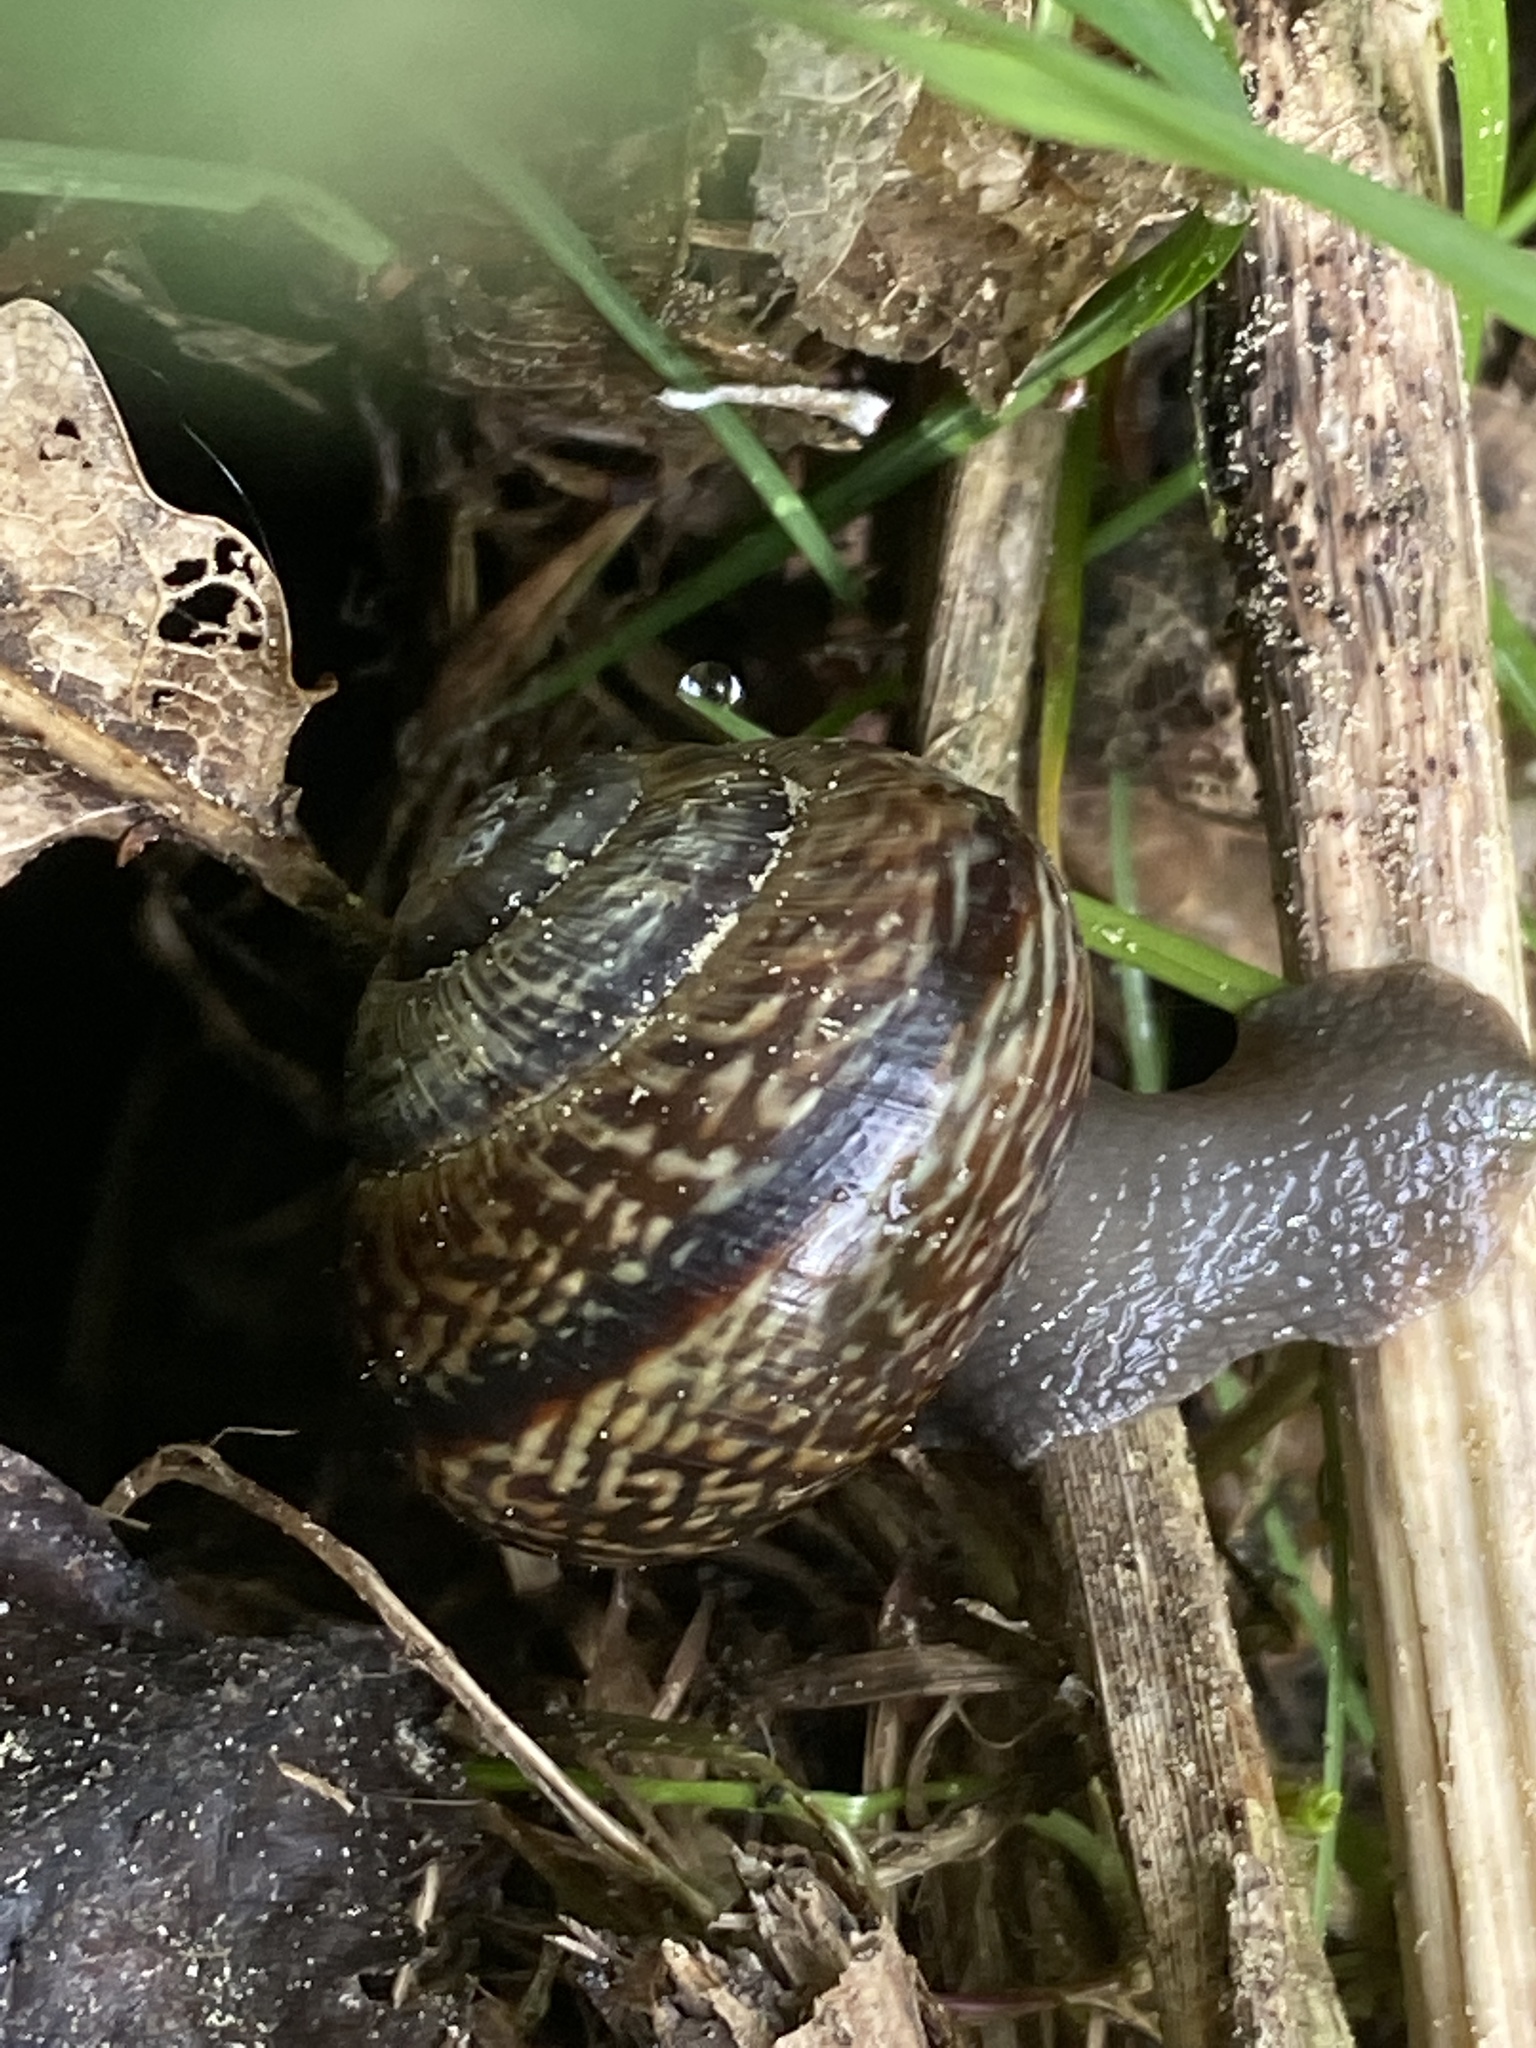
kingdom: Animalia
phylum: Mollusca
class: Gastropoda
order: Stylommatophora
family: Helicidae
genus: Arianta
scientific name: Arianta arbustorum
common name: Copse snail
